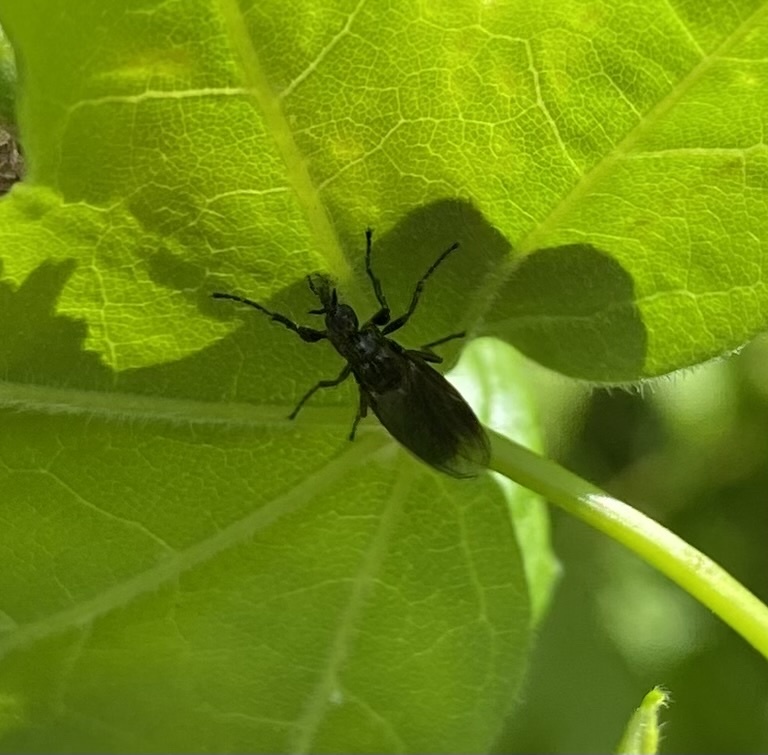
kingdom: Animalia
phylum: Arthropoda
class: Insecta
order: Diptera
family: Bibionidae
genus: Dilophus
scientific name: Dilophus febrilis
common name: Fever fly
